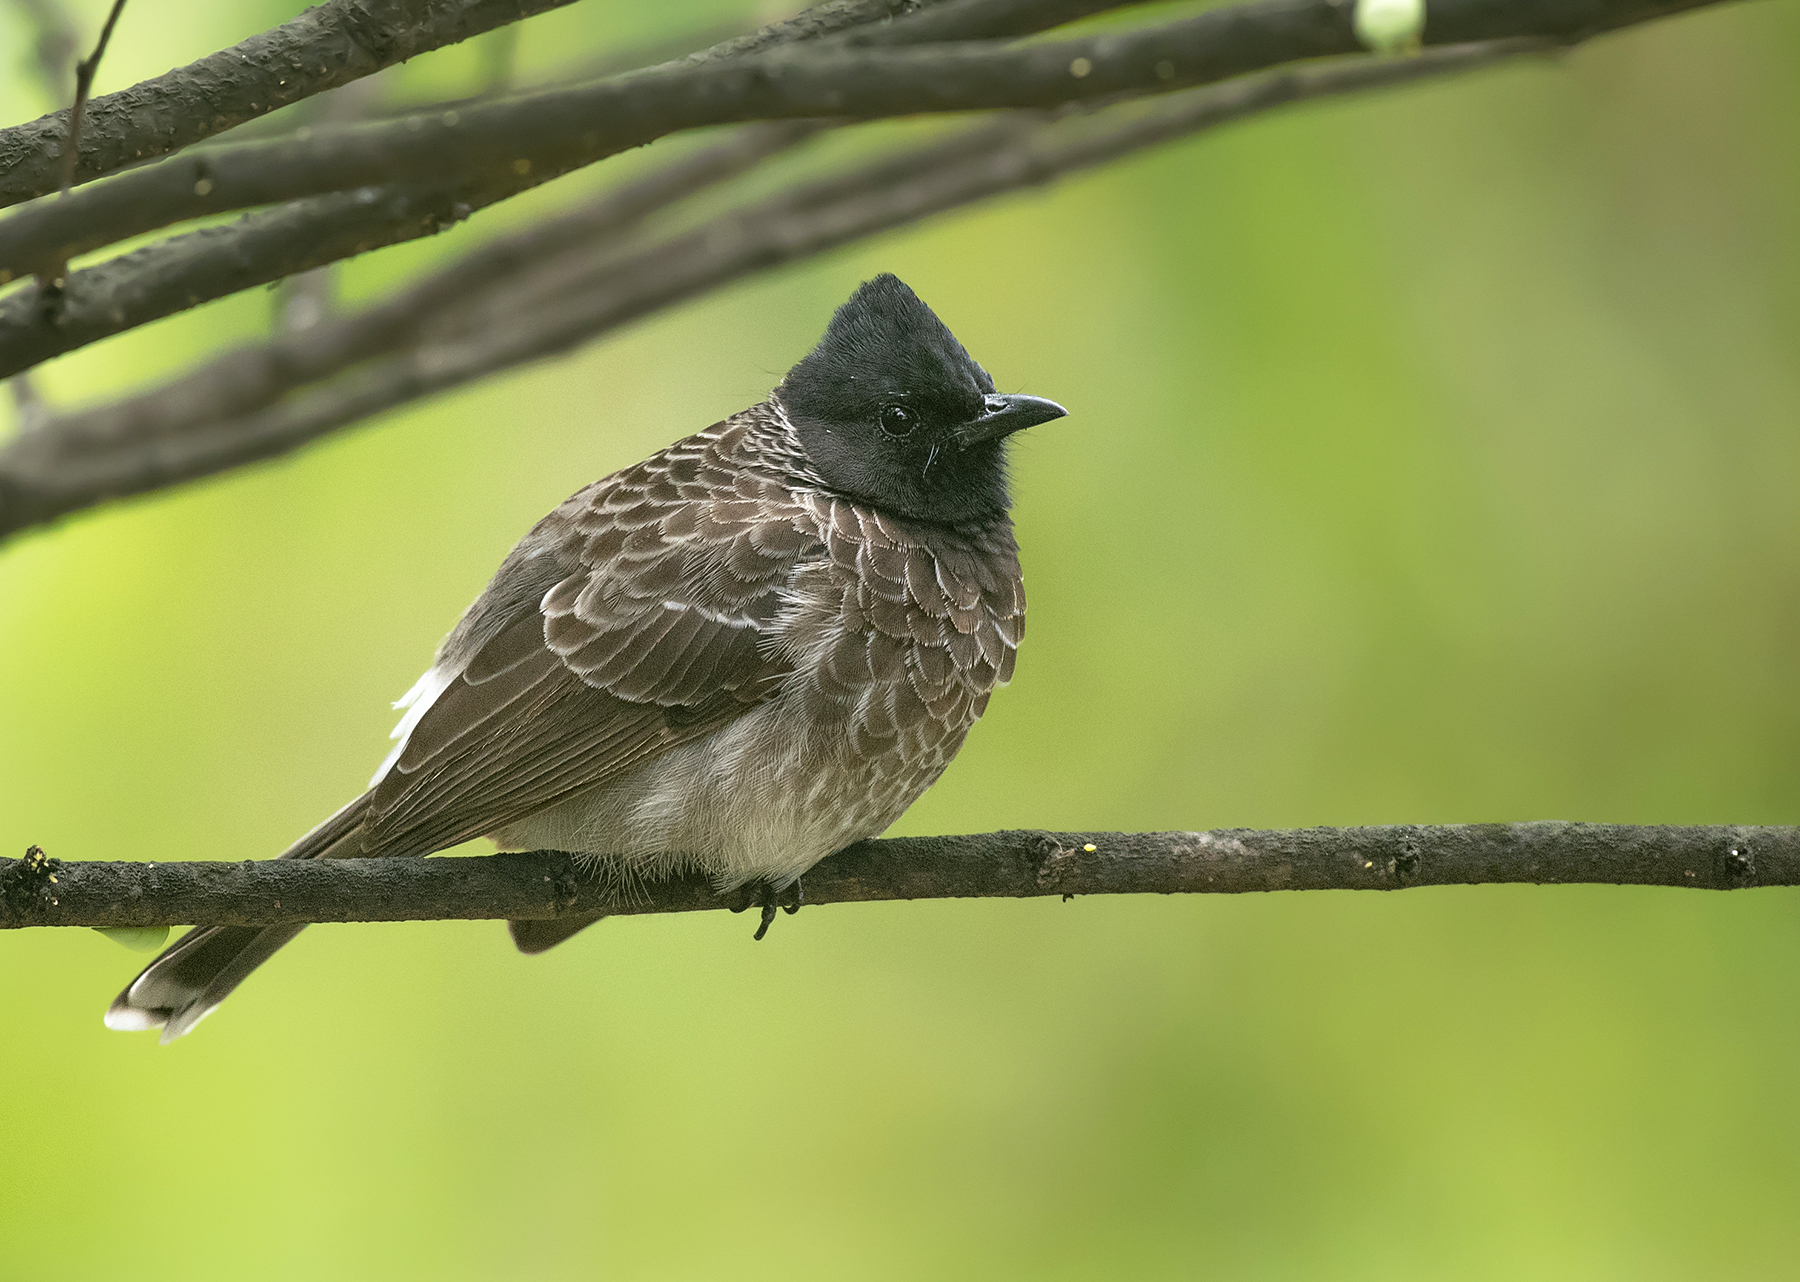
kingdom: Animalia
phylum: Chordata
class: Aves
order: Passeriformes
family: Pycnonotidae
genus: Pycnonotus
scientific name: Pycnonotus cafer
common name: Red-vented bulbul
